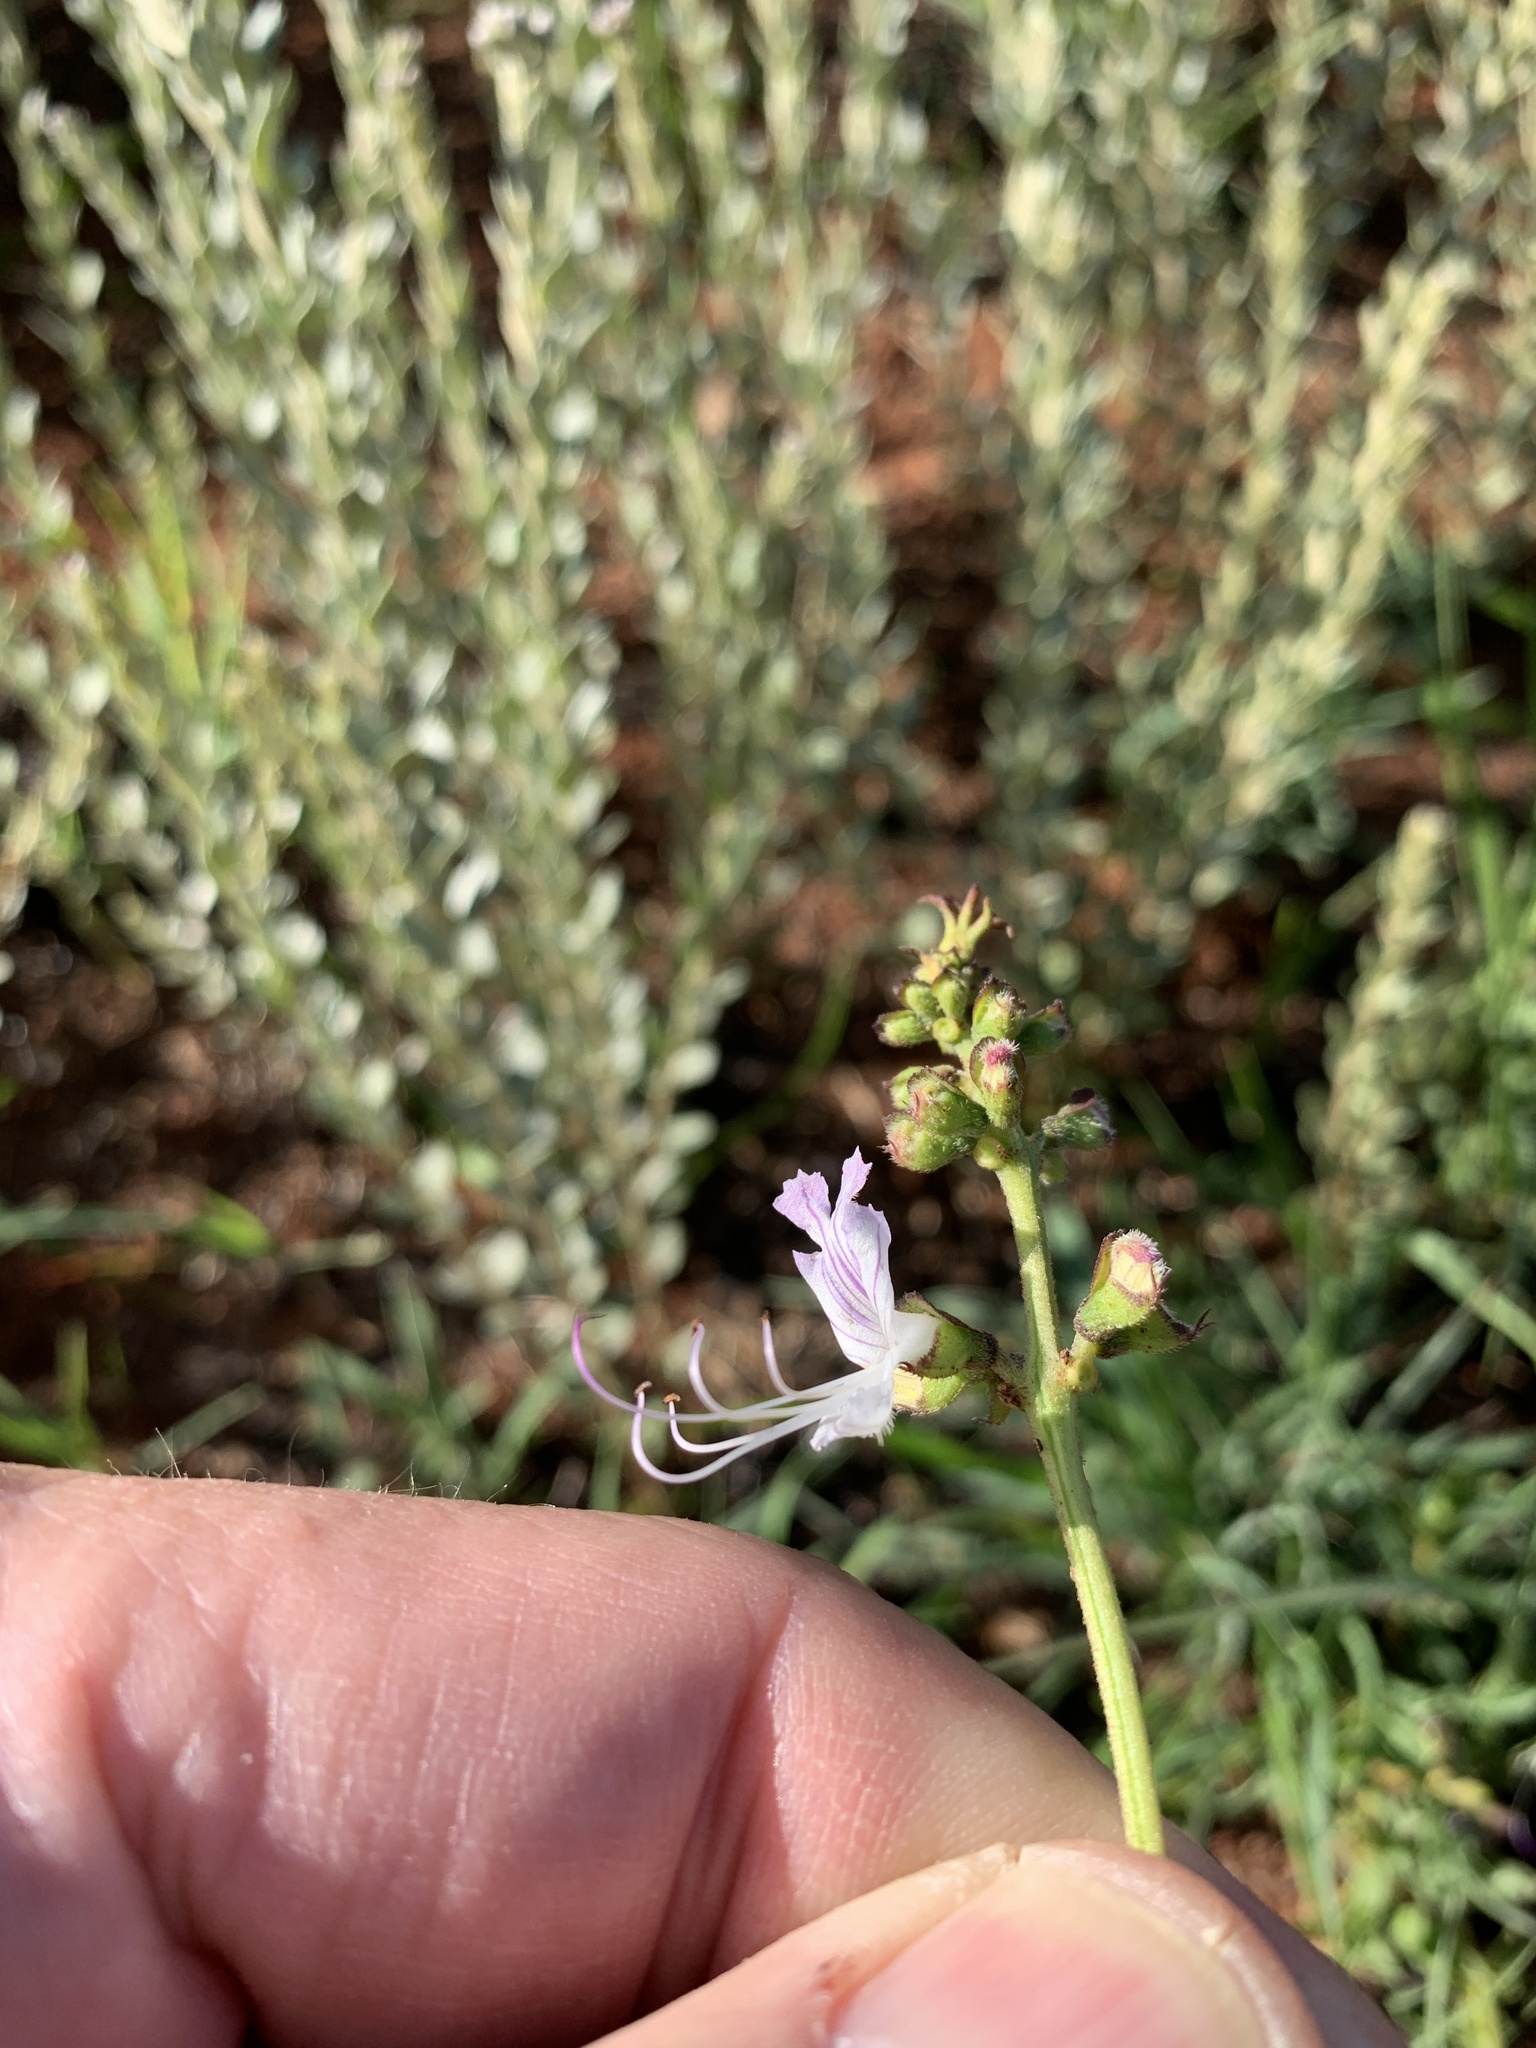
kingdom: Plantae
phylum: Tracheophyta
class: Magnoliopsida
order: Lamiales
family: Lamiaceae
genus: Ocimum
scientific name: Ocimum obovatum
